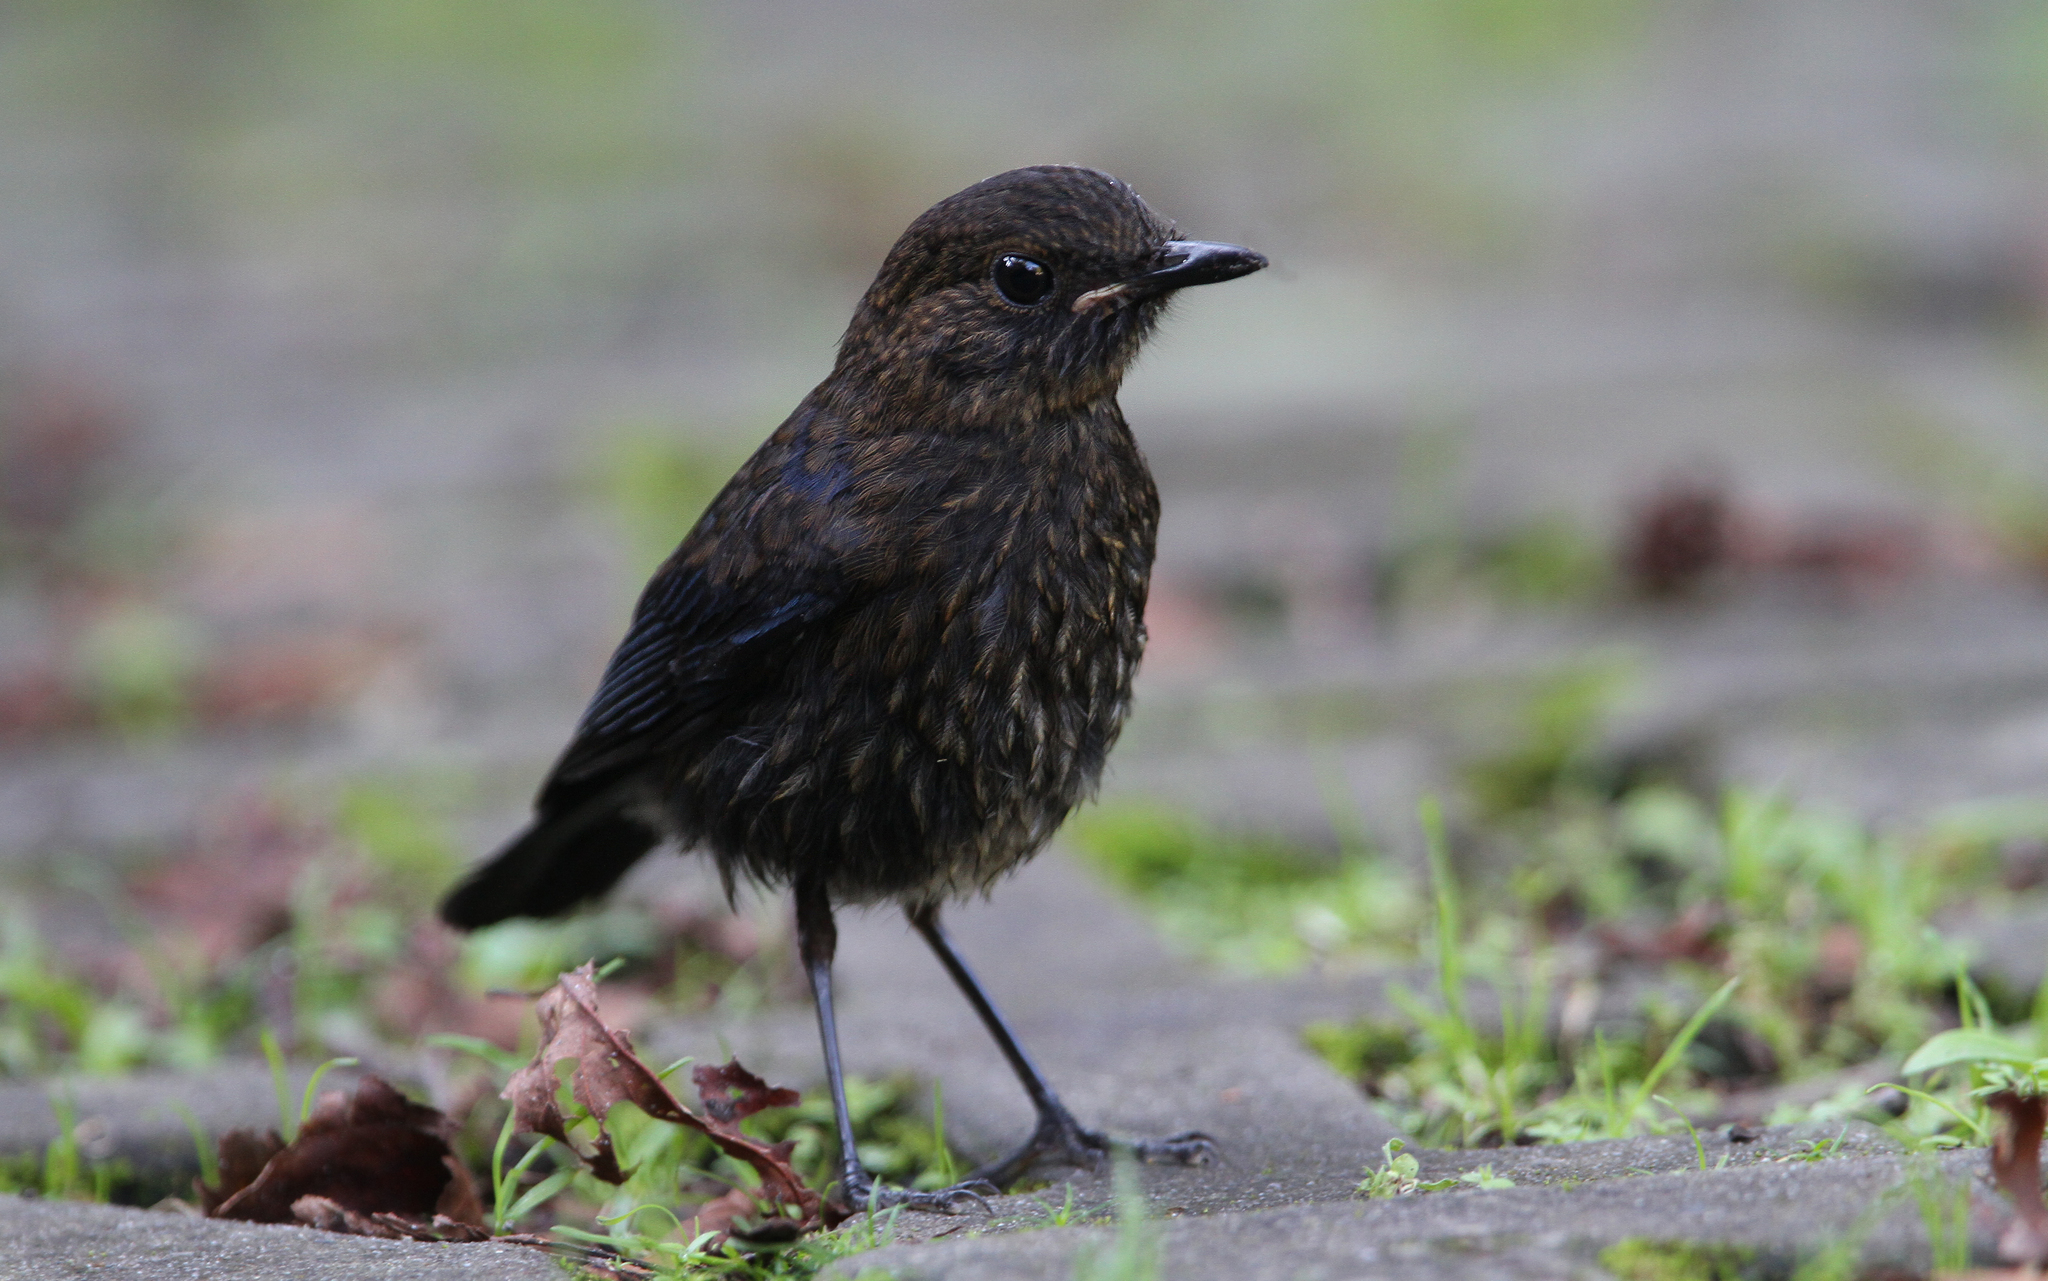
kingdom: Animalia
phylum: Chordata
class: Aves
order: Passeriformes
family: Muscicapidae
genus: Myiomela
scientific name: Myiomela leucura
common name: White-tailed robin
